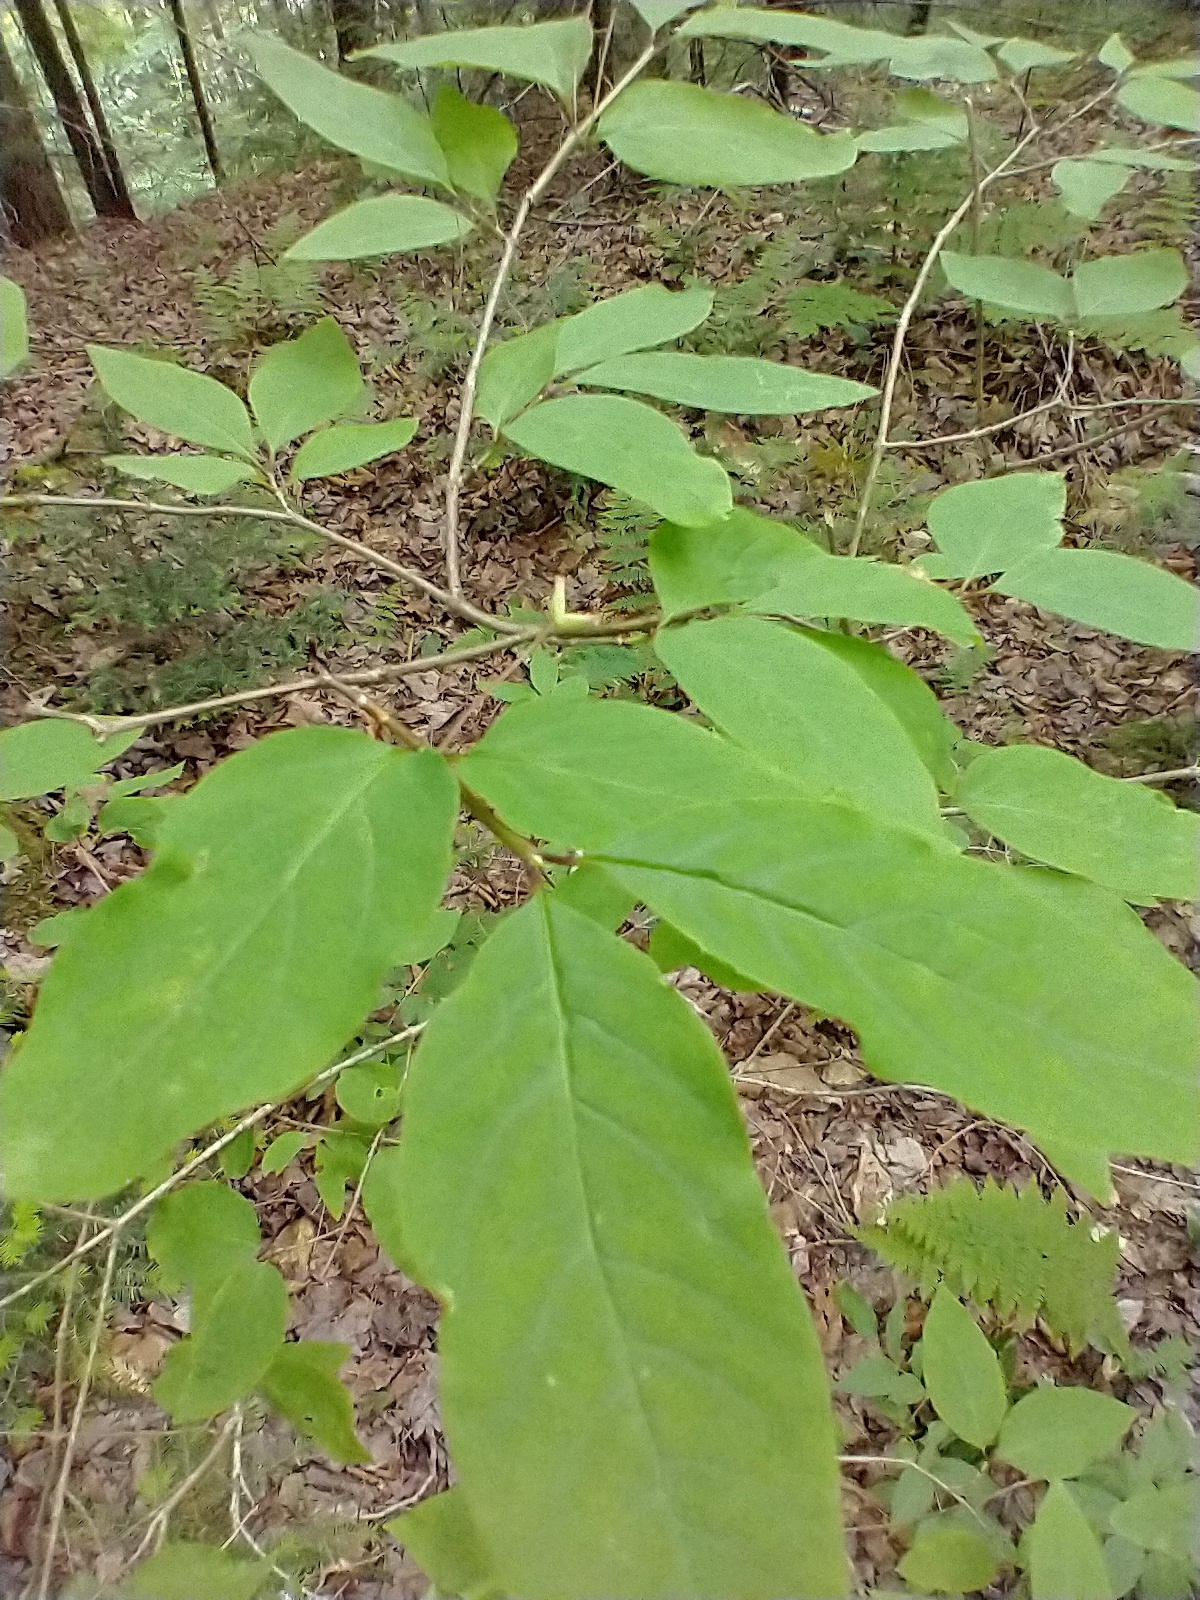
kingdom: Plantae
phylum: Tracheophyta
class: Magnoliopsida
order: Dipsacales
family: Caprifoliaceae
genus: Lonicera
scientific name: Lonicera canadensis
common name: American fly-honeysuckle
